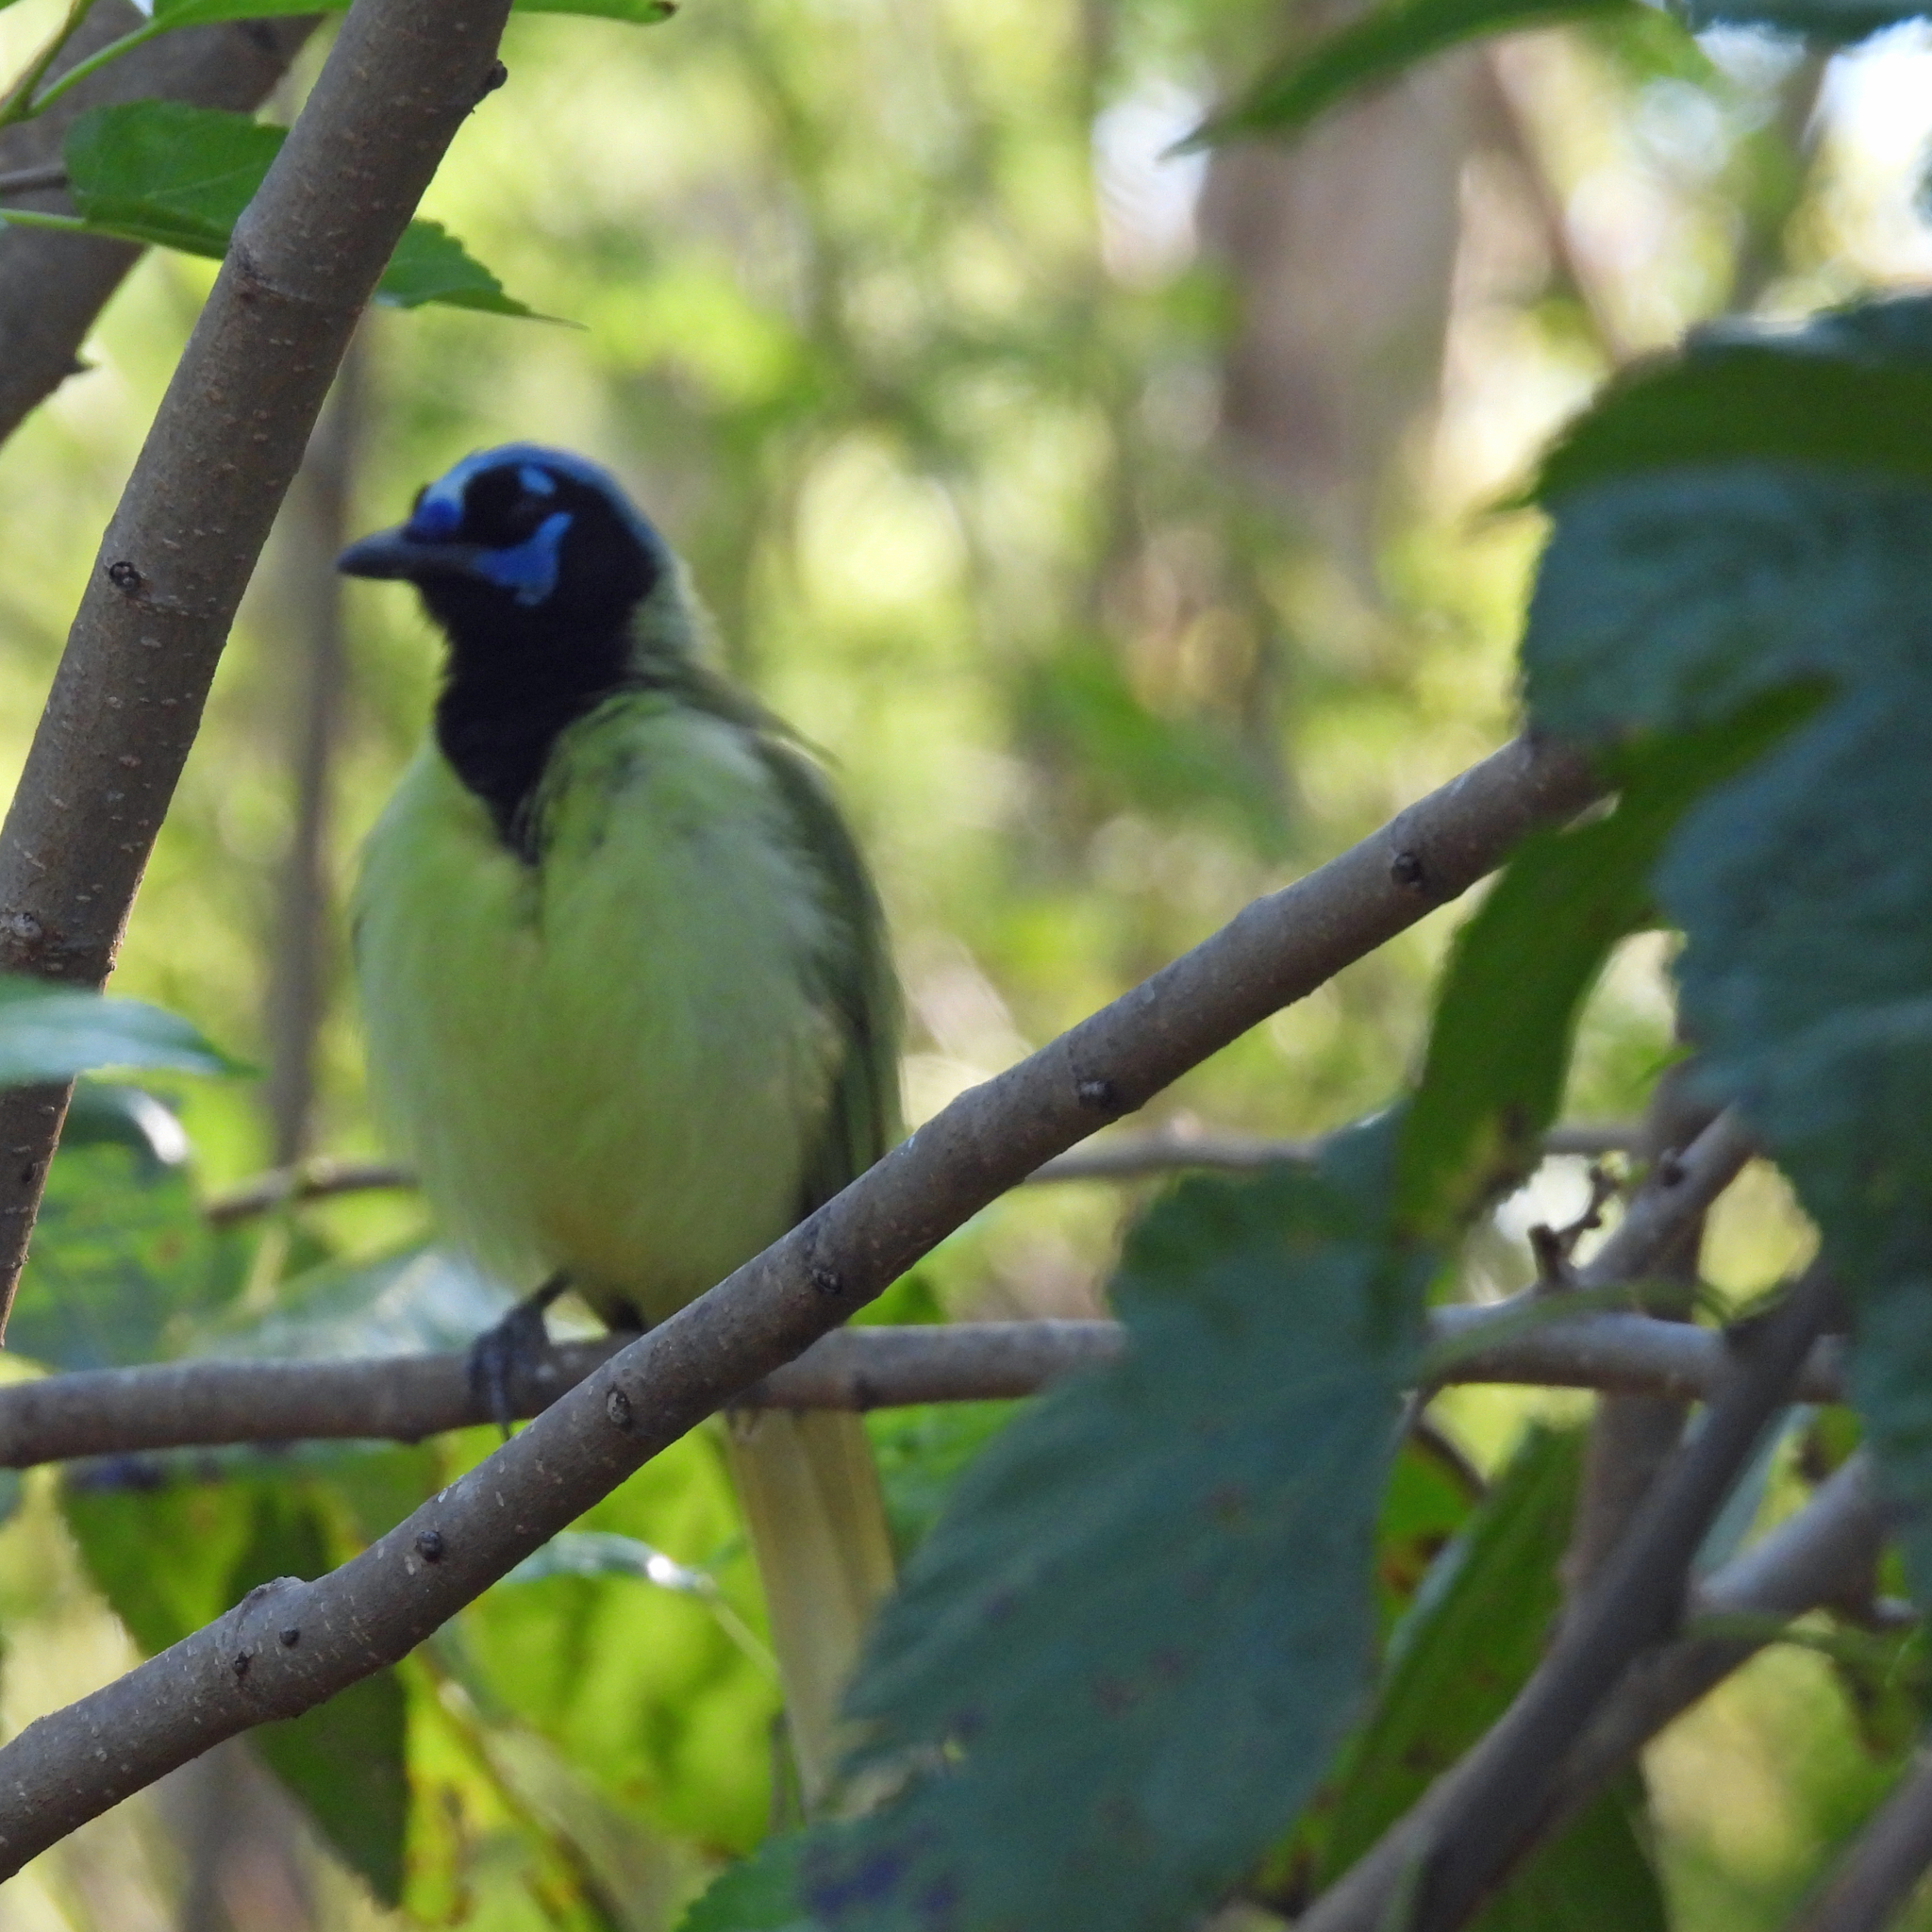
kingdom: Animalia
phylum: Chordata
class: Aves
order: Passeriformes
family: Corvidae
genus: Cyanocorax
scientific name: Cyanocorax yncas
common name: Green jay
